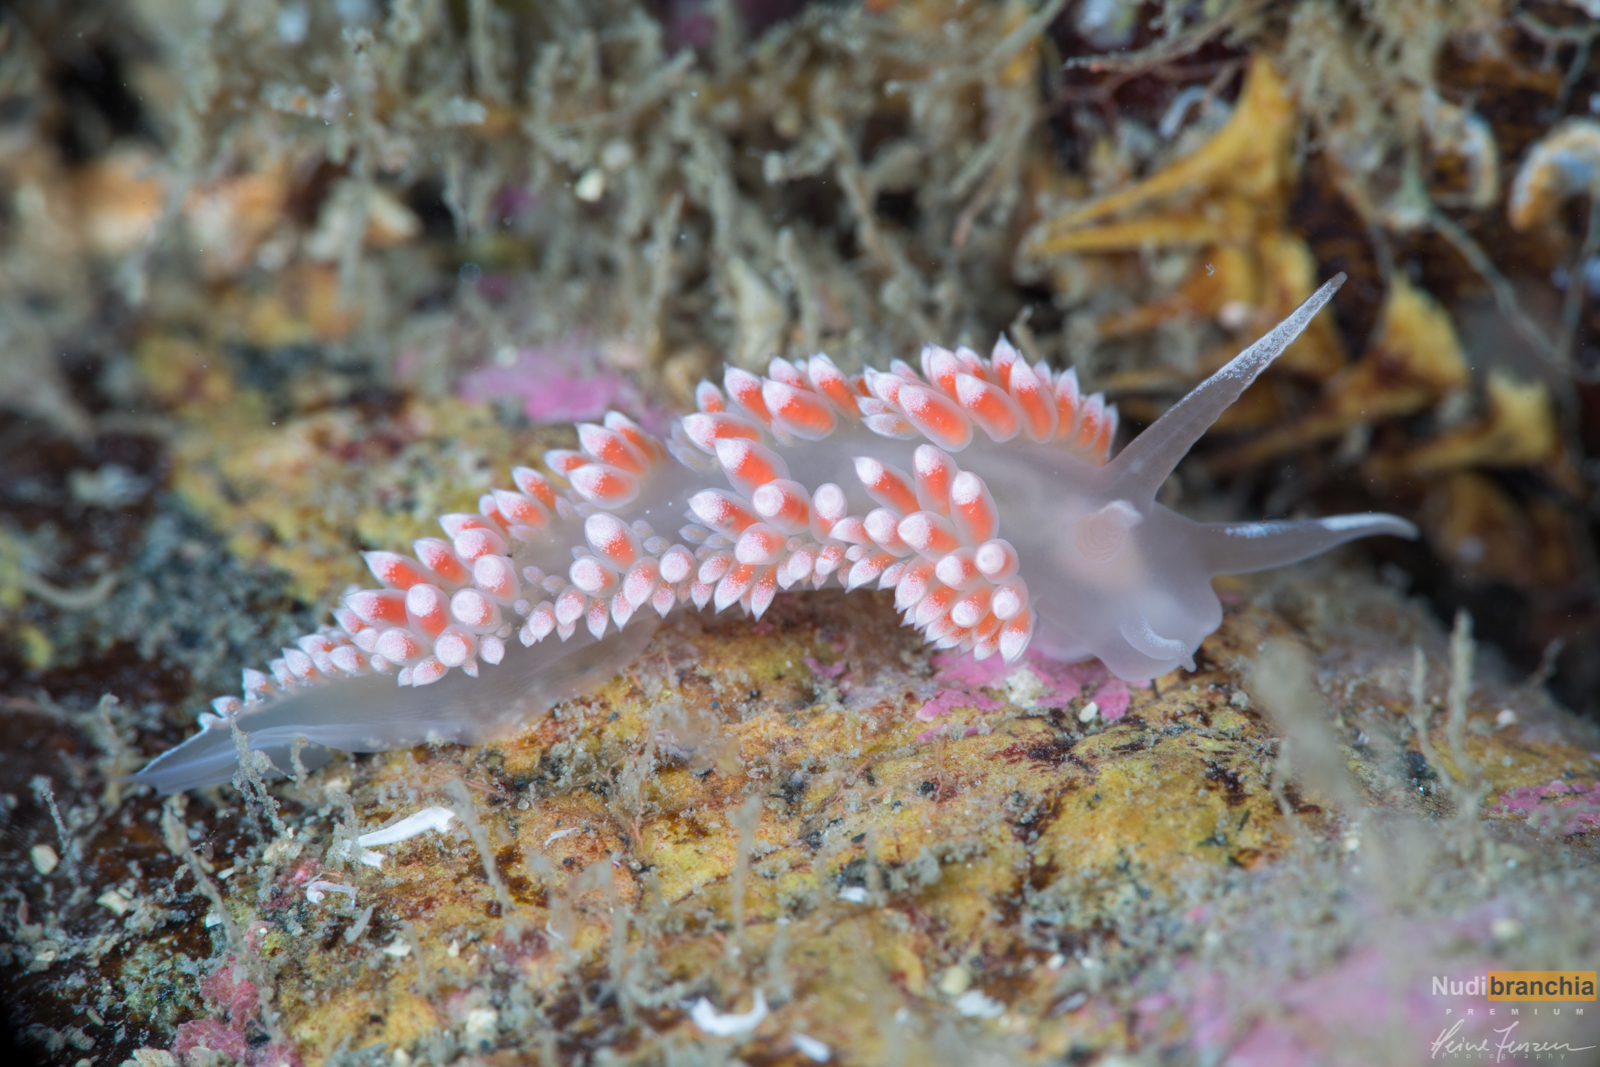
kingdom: Animalia
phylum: Mollusca
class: Gastropoda
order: Nudibranchia
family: Coryphellidae
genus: Coryphella
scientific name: Coryphella verrucosa
